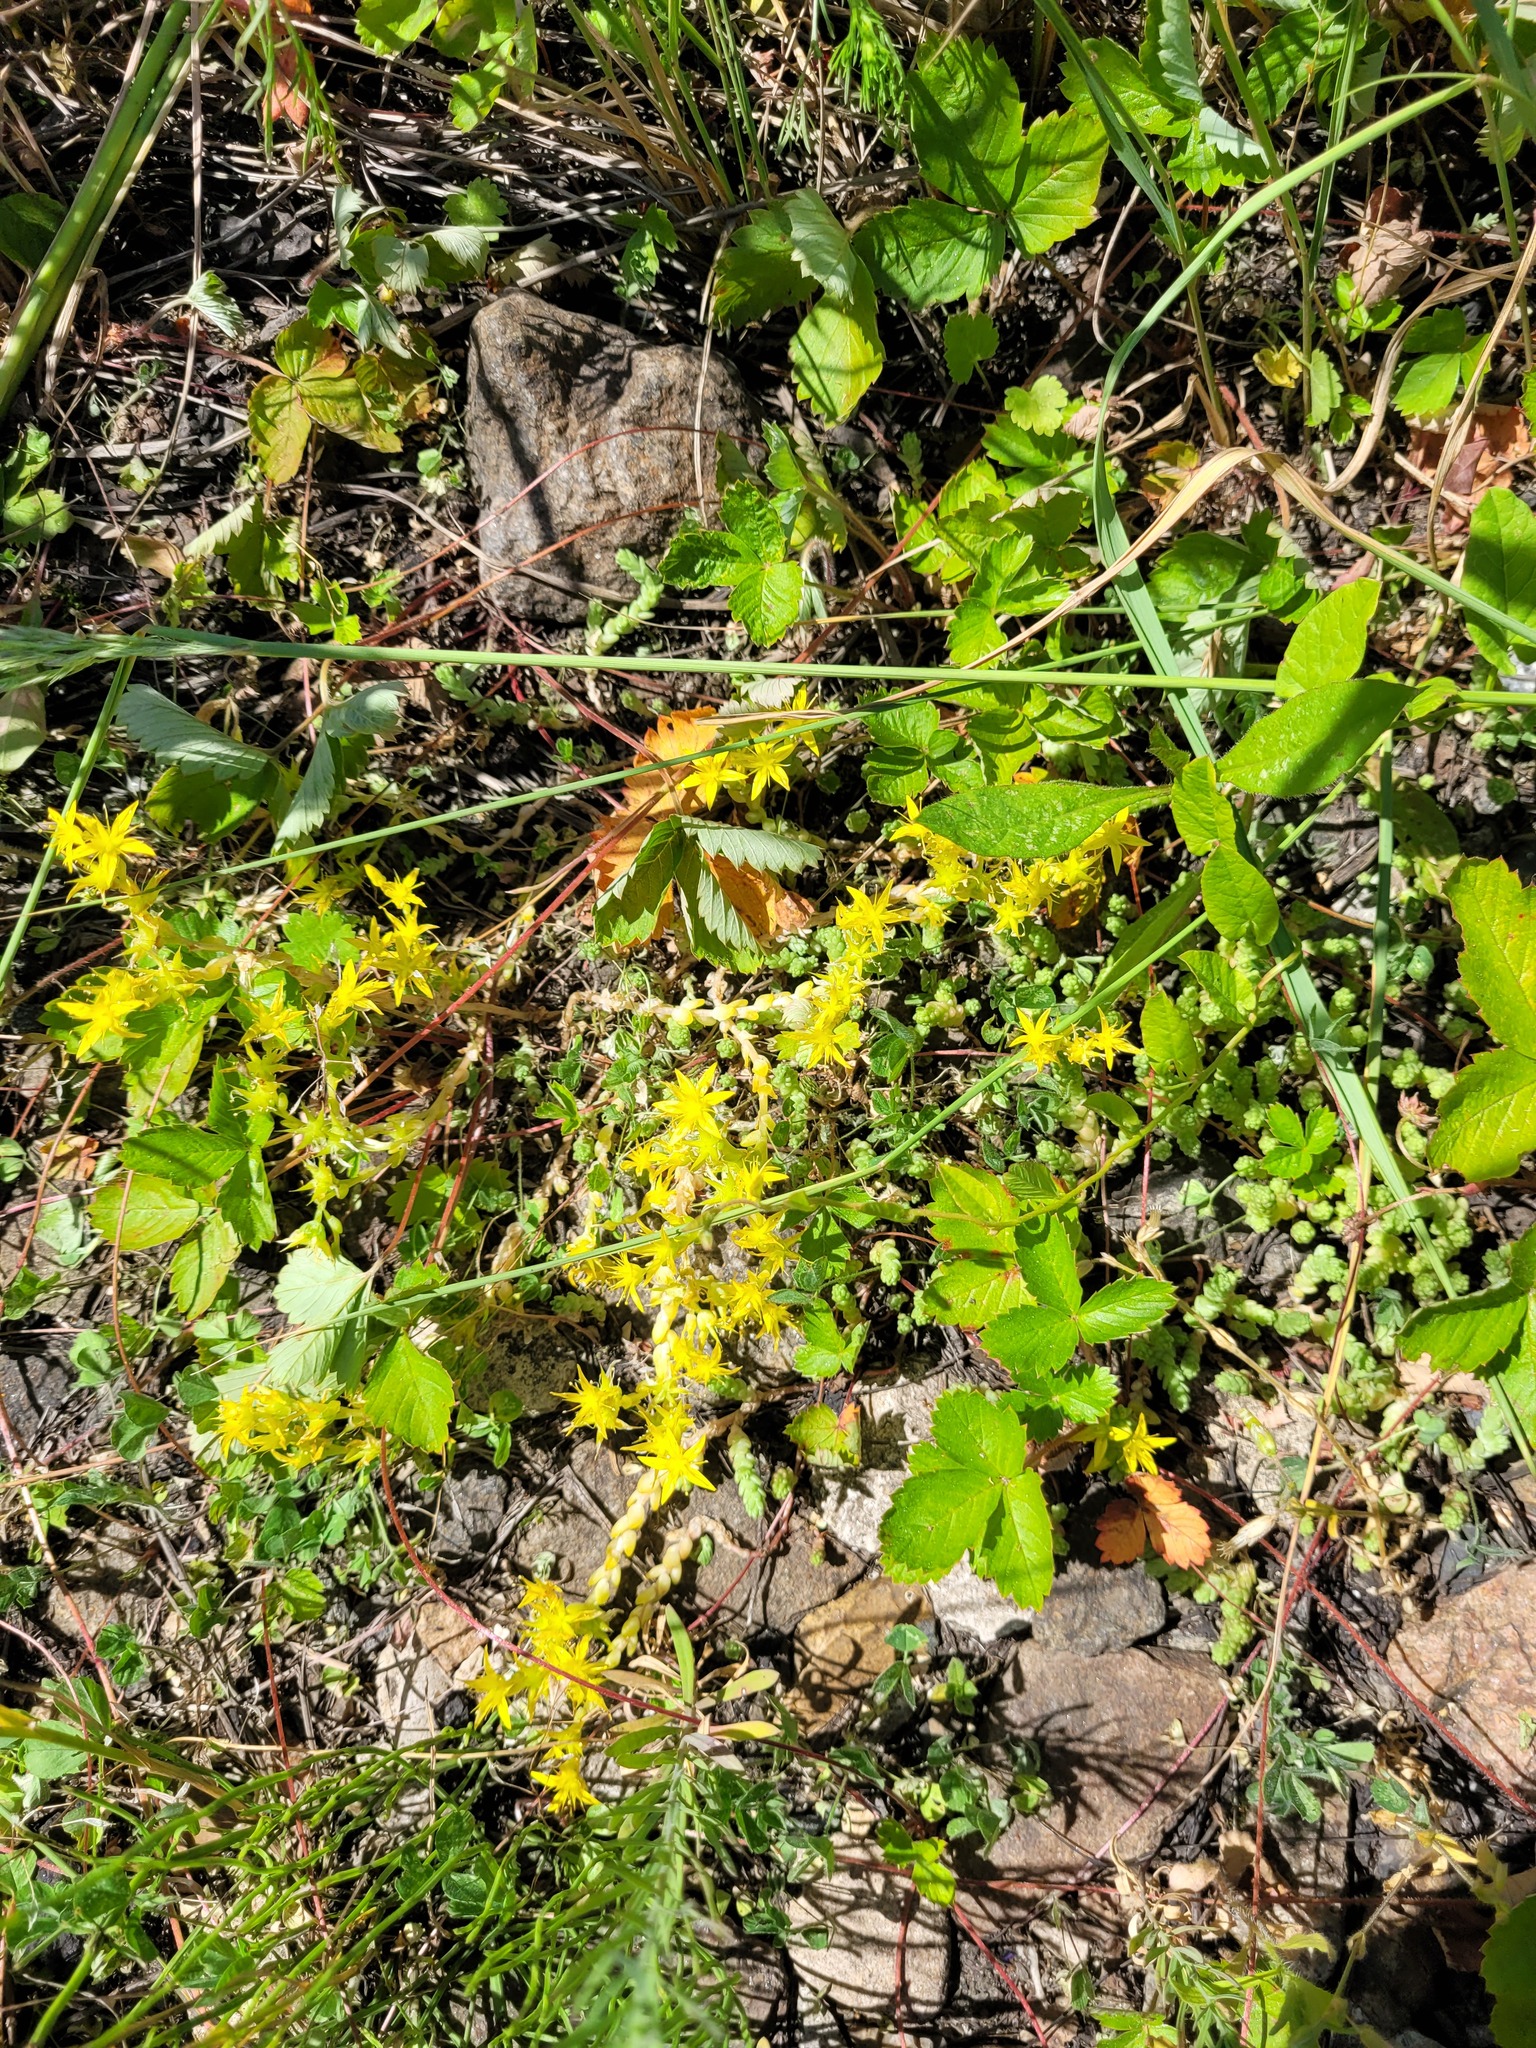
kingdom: Plantae
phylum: Tracheophyta
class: Magnoliopsida
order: Saxifragales
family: Crassulaceae
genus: Sedum
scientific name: Sedum acre
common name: Biting stonecrop
